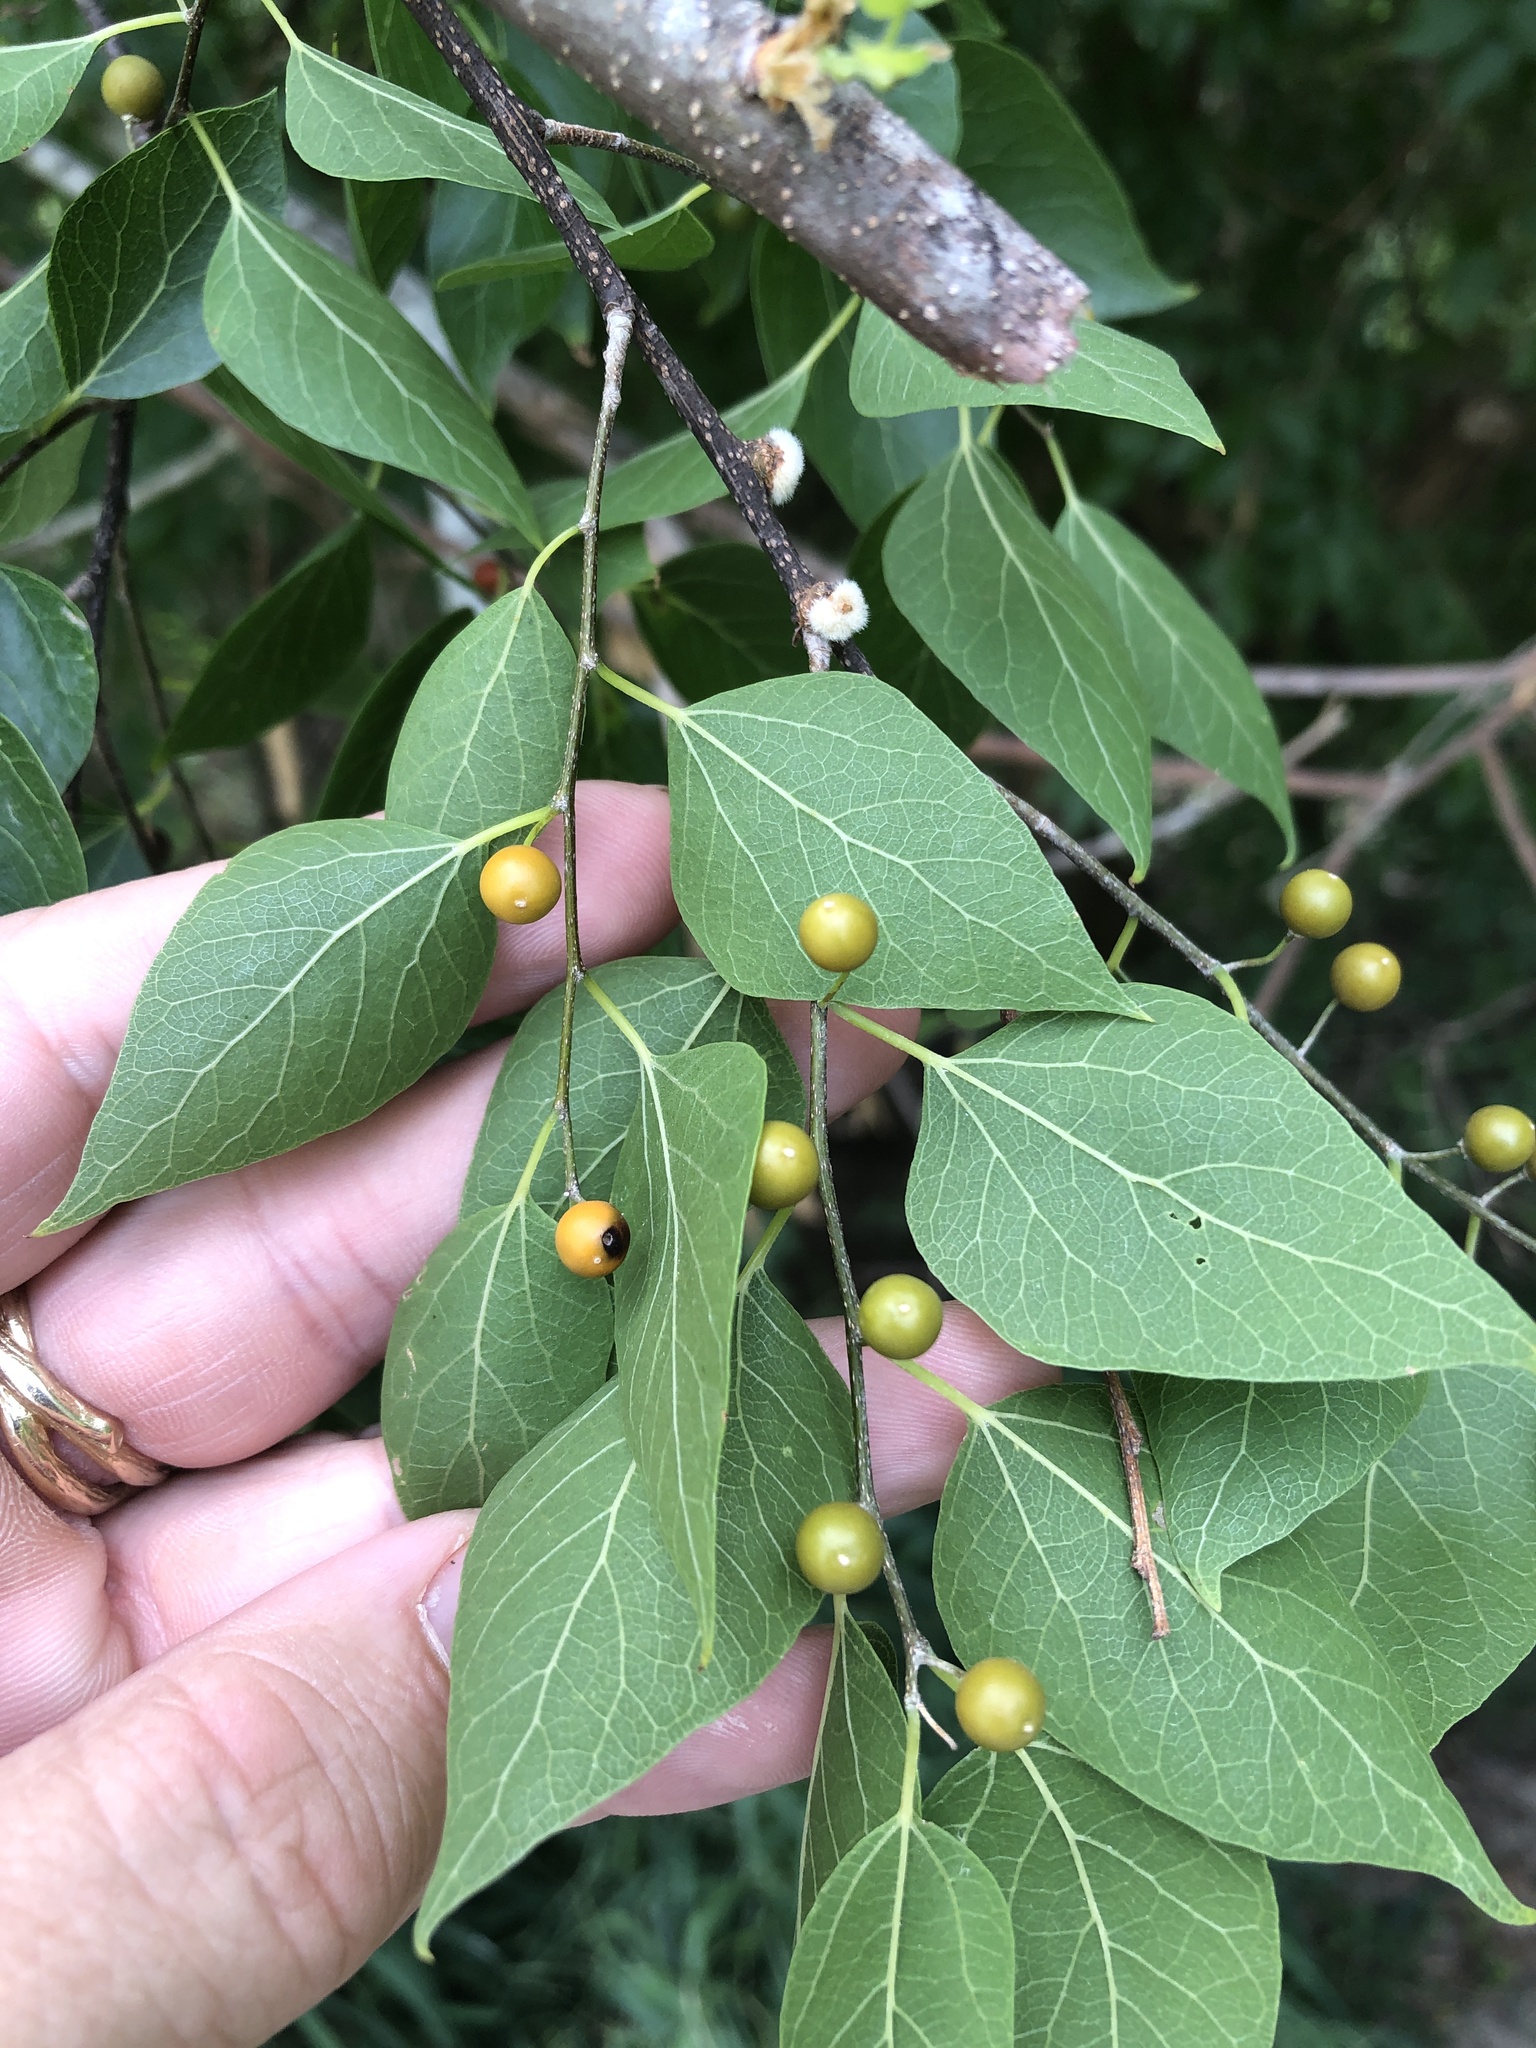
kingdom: Plantae
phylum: Tracheophyta
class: Magnoliopsida
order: Rosales
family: Cannabaceae
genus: Celtis
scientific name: Celtis laevigata
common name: Sugarberry
